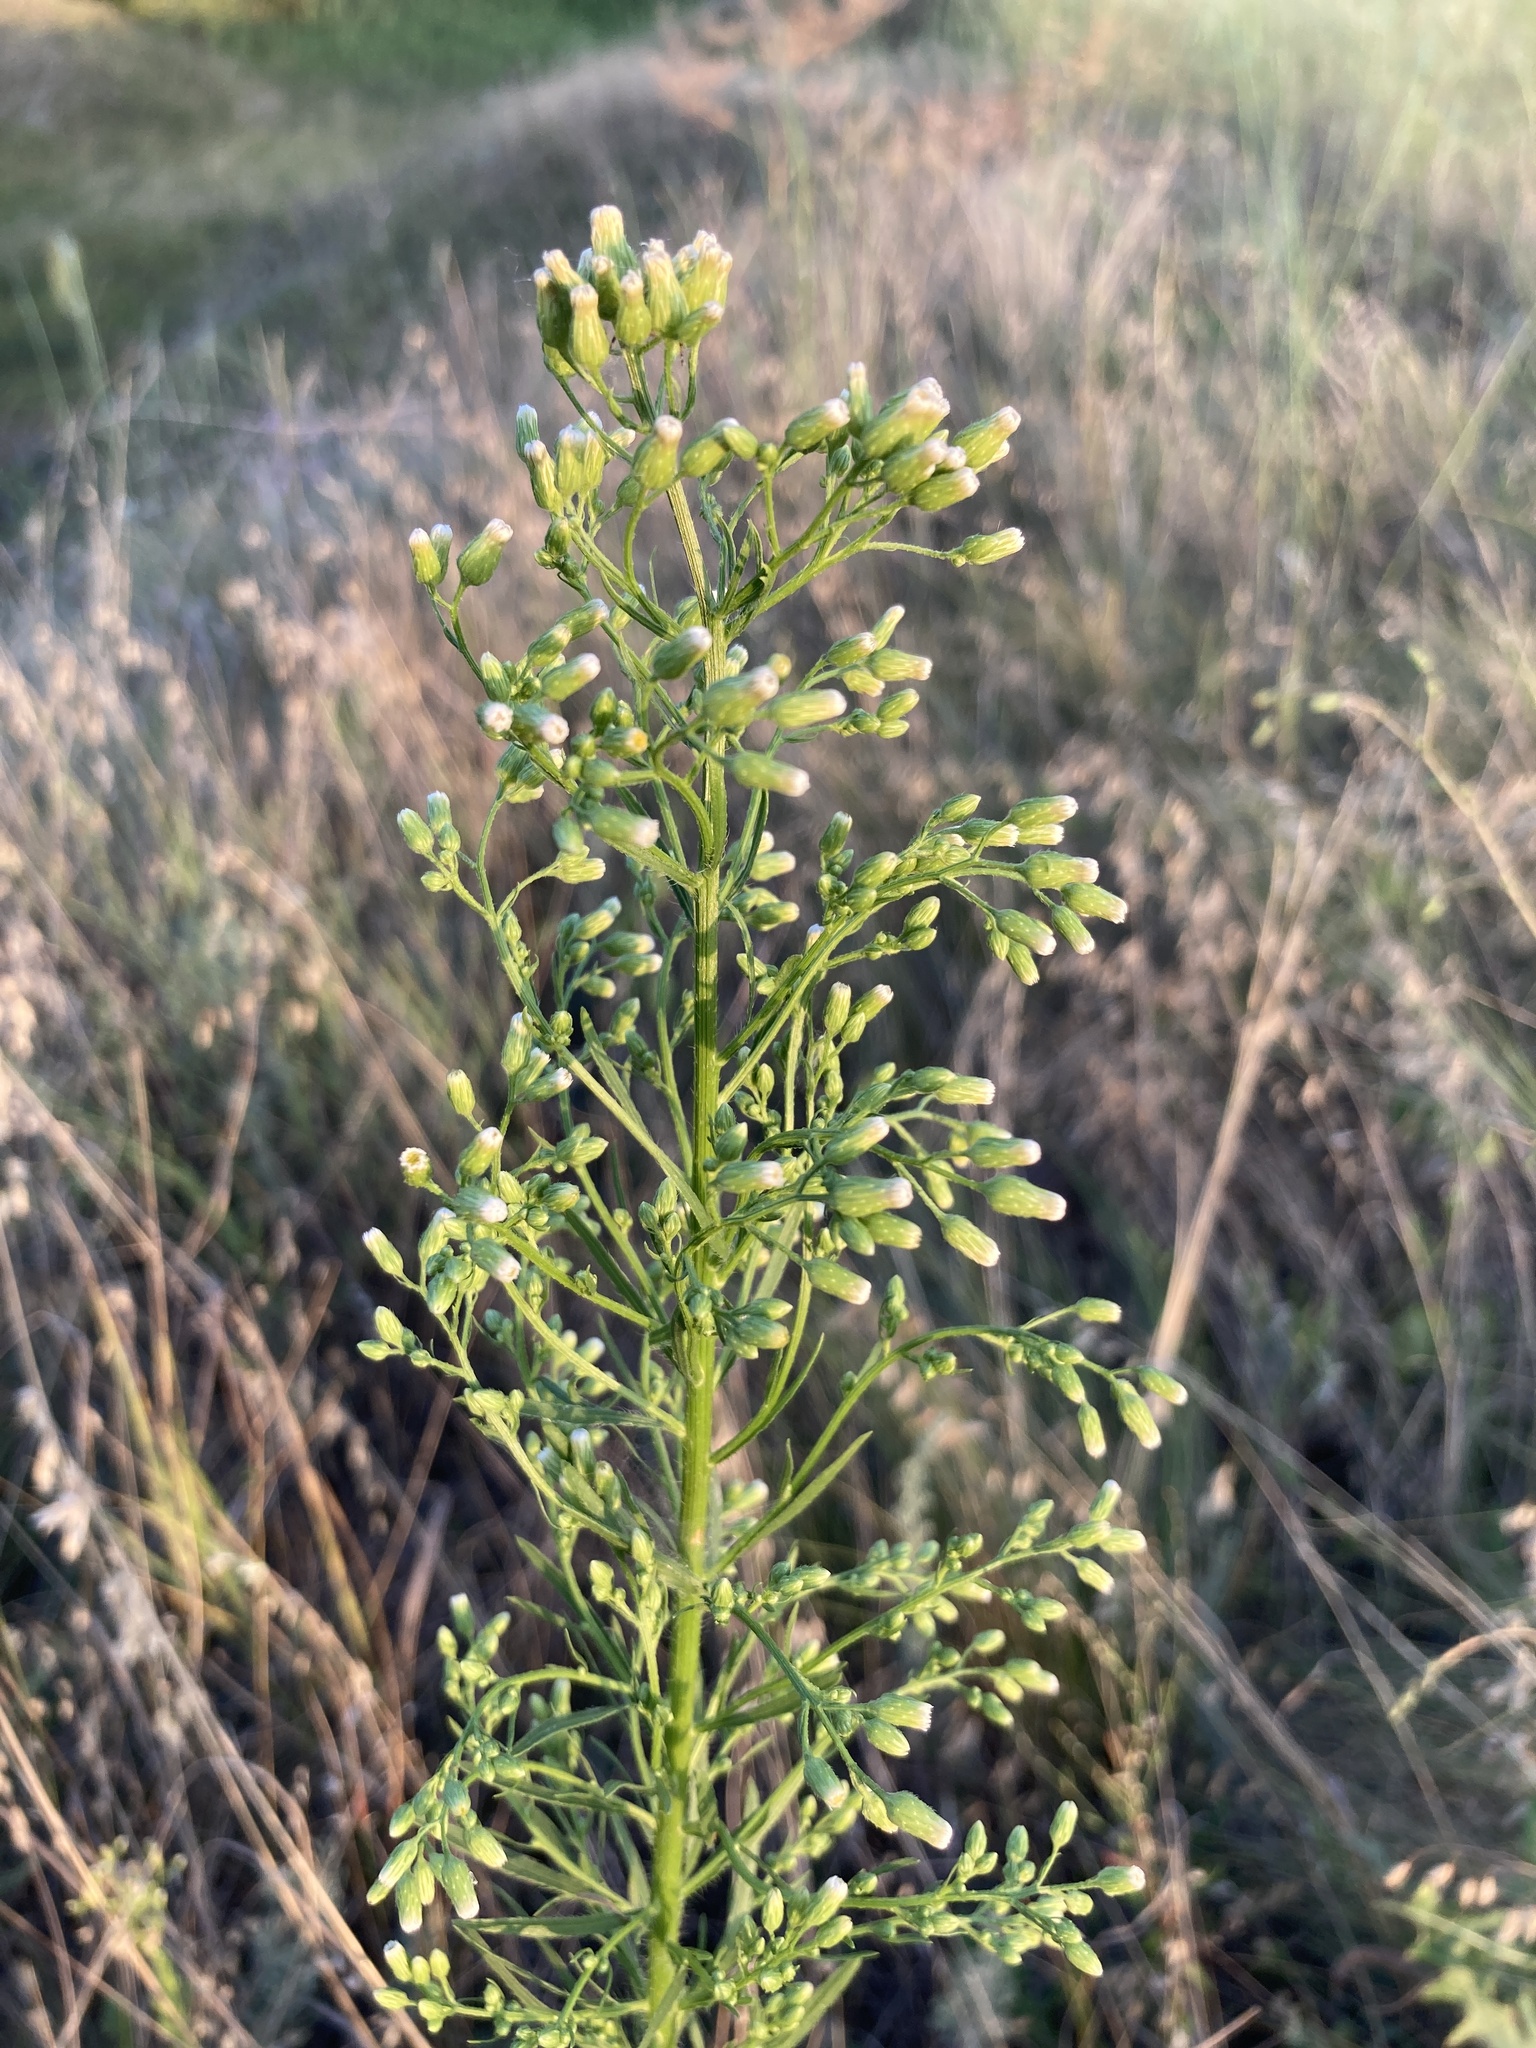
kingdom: Plantae
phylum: Tracheophyta
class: Magnoliopsida
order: Asterales
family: Asteraceae
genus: Erigeron
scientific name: Erigeron canadensis
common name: Canadian fleabane
